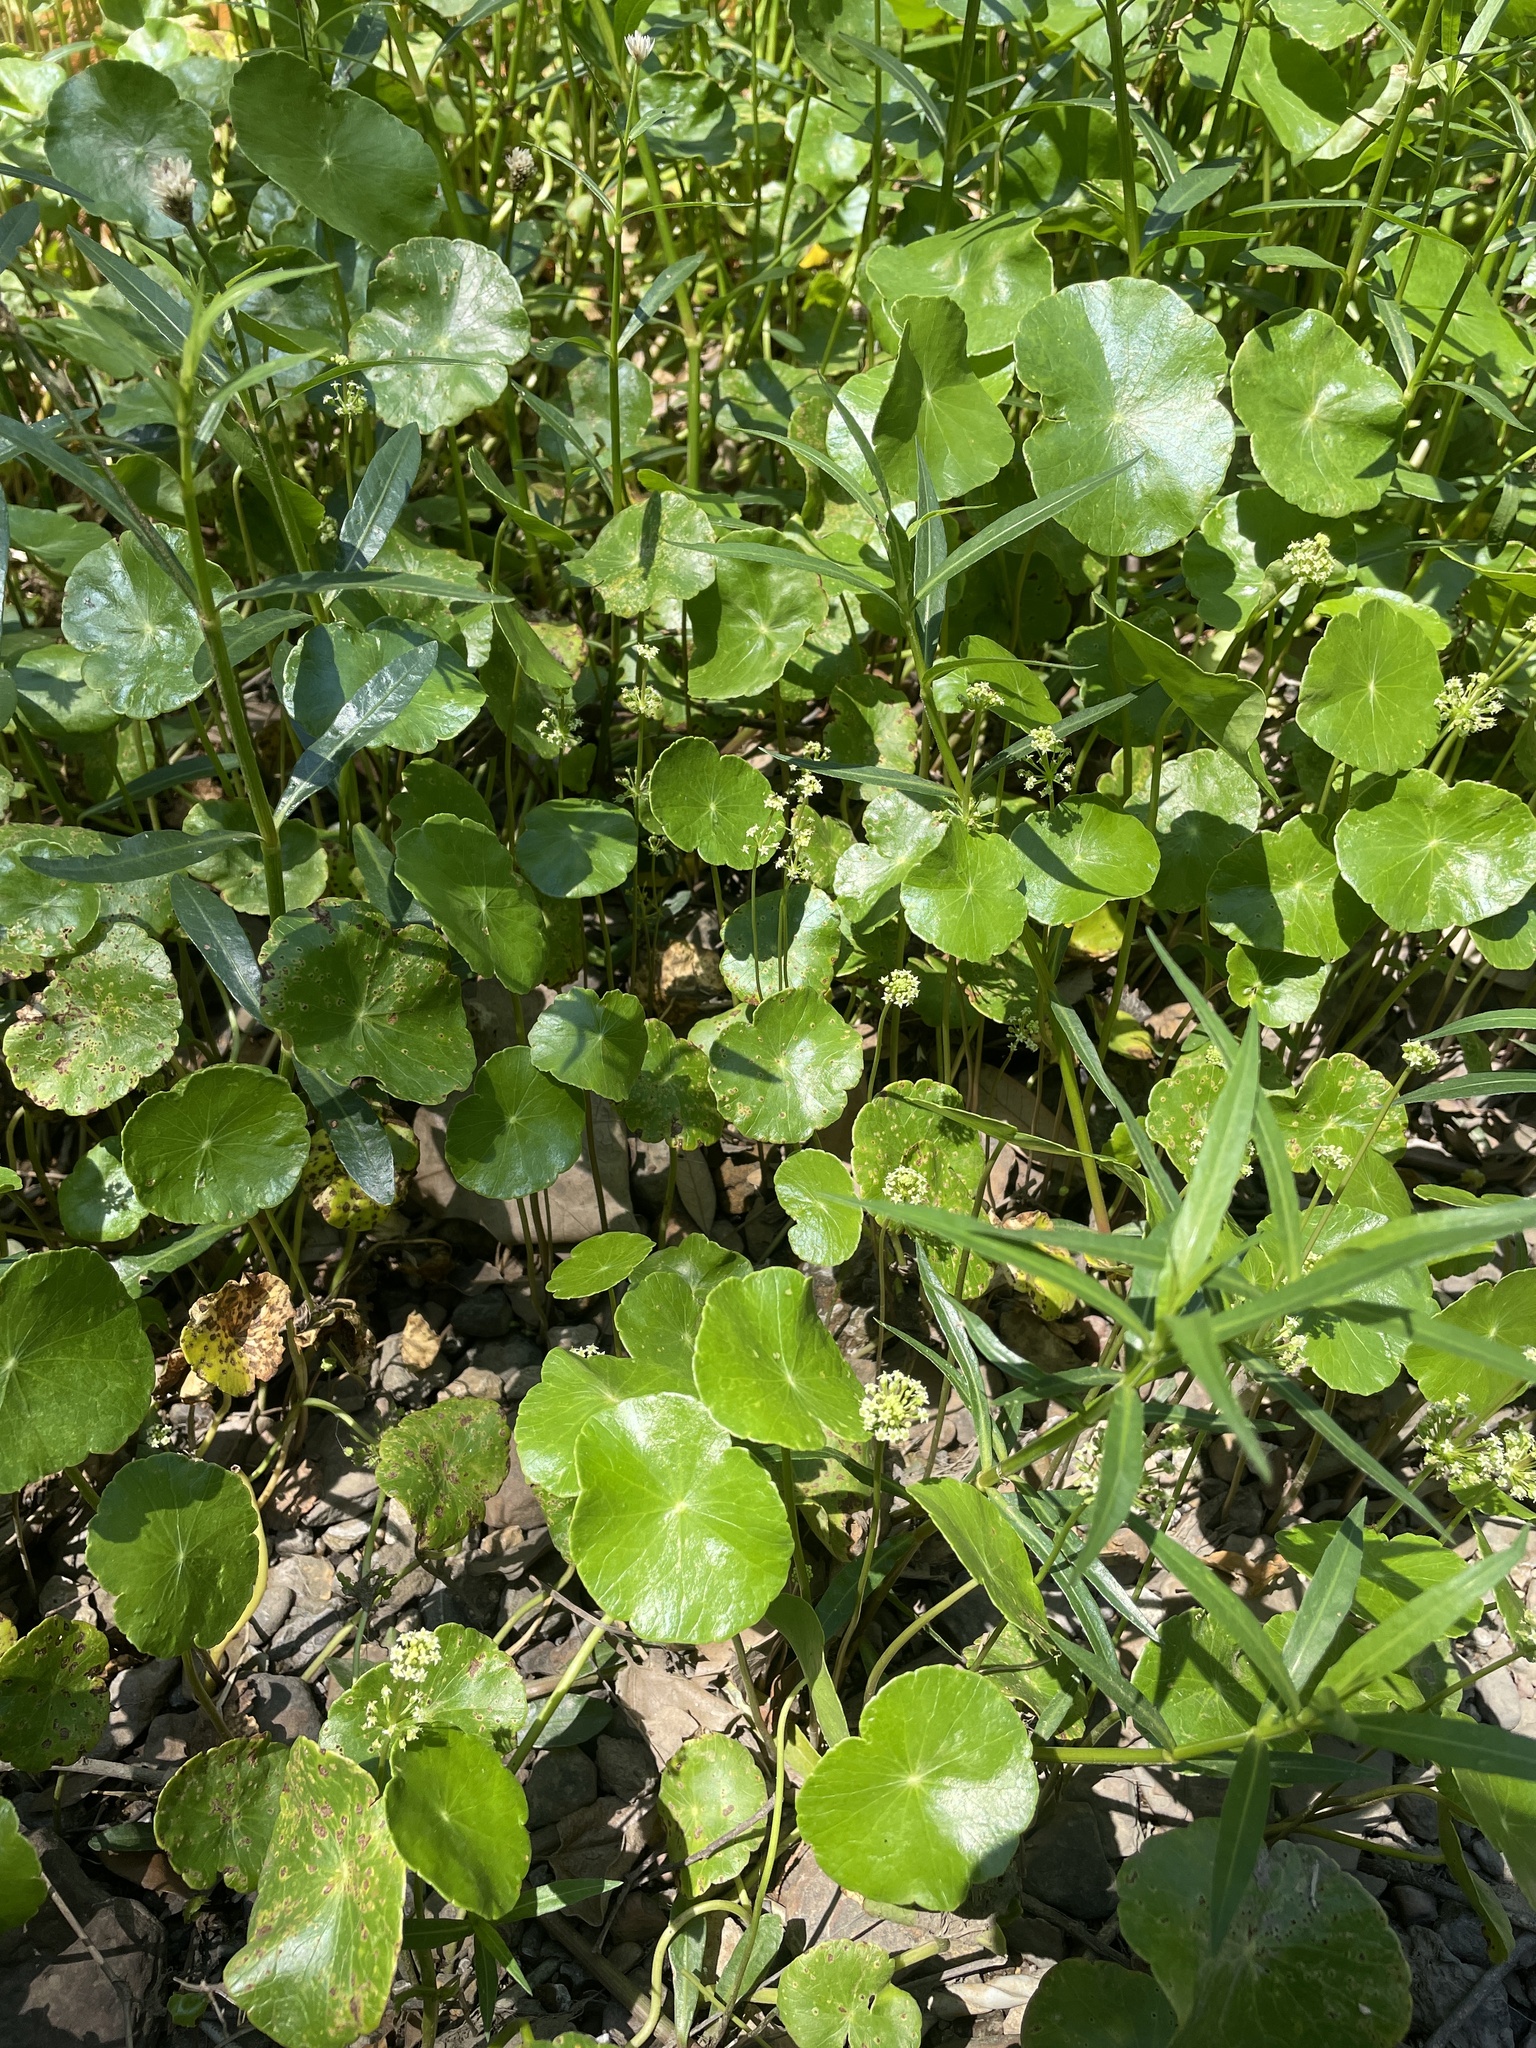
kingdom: Plantae
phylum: Tracheophyta
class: Magnoliopsida
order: Apiales
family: Araliaceae
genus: Hydrocotyle
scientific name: Hydrocotyle prolifera
